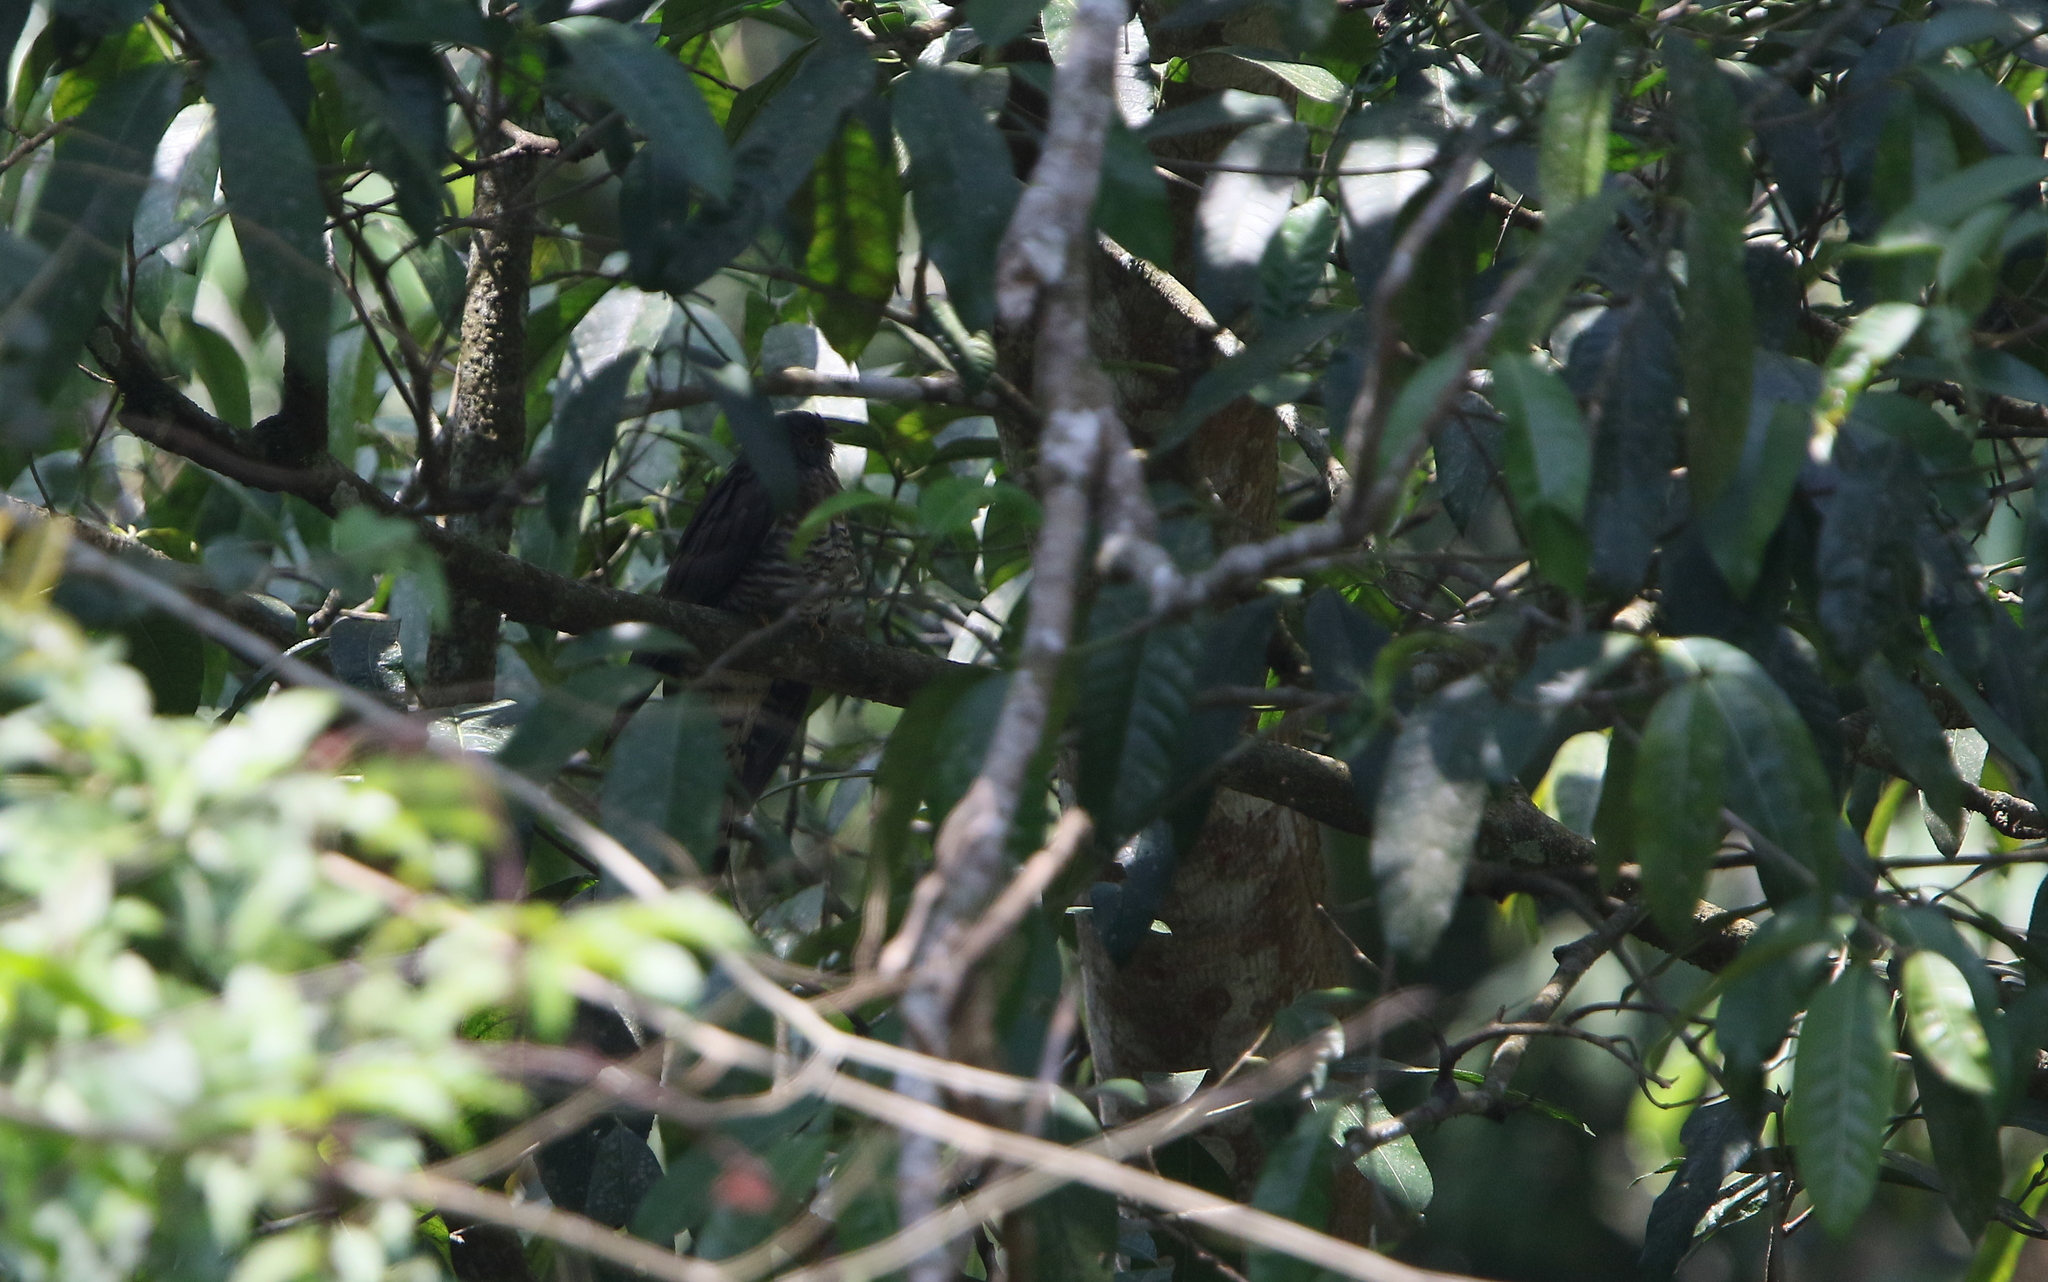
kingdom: Animalia
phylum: Chordata
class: Aves
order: Cuculiformes
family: Cuculidae
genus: Cuculus
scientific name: Cuculus sparverioides
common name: Large hawk cuckoo
